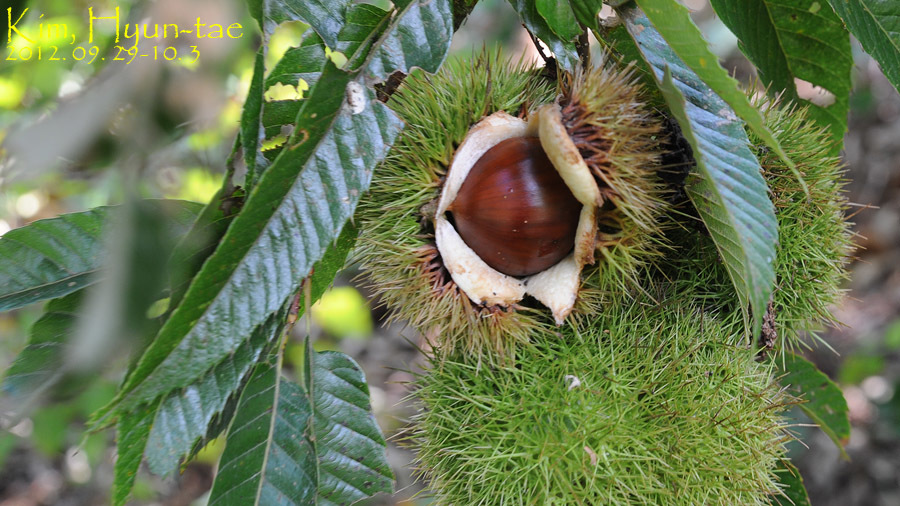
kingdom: Plantae
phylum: Tracheophyta
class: Magnoliopsida
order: Fagales
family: Fagaceae
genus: Castanea
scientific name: Castanea crenata
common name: Japanese chestnut
